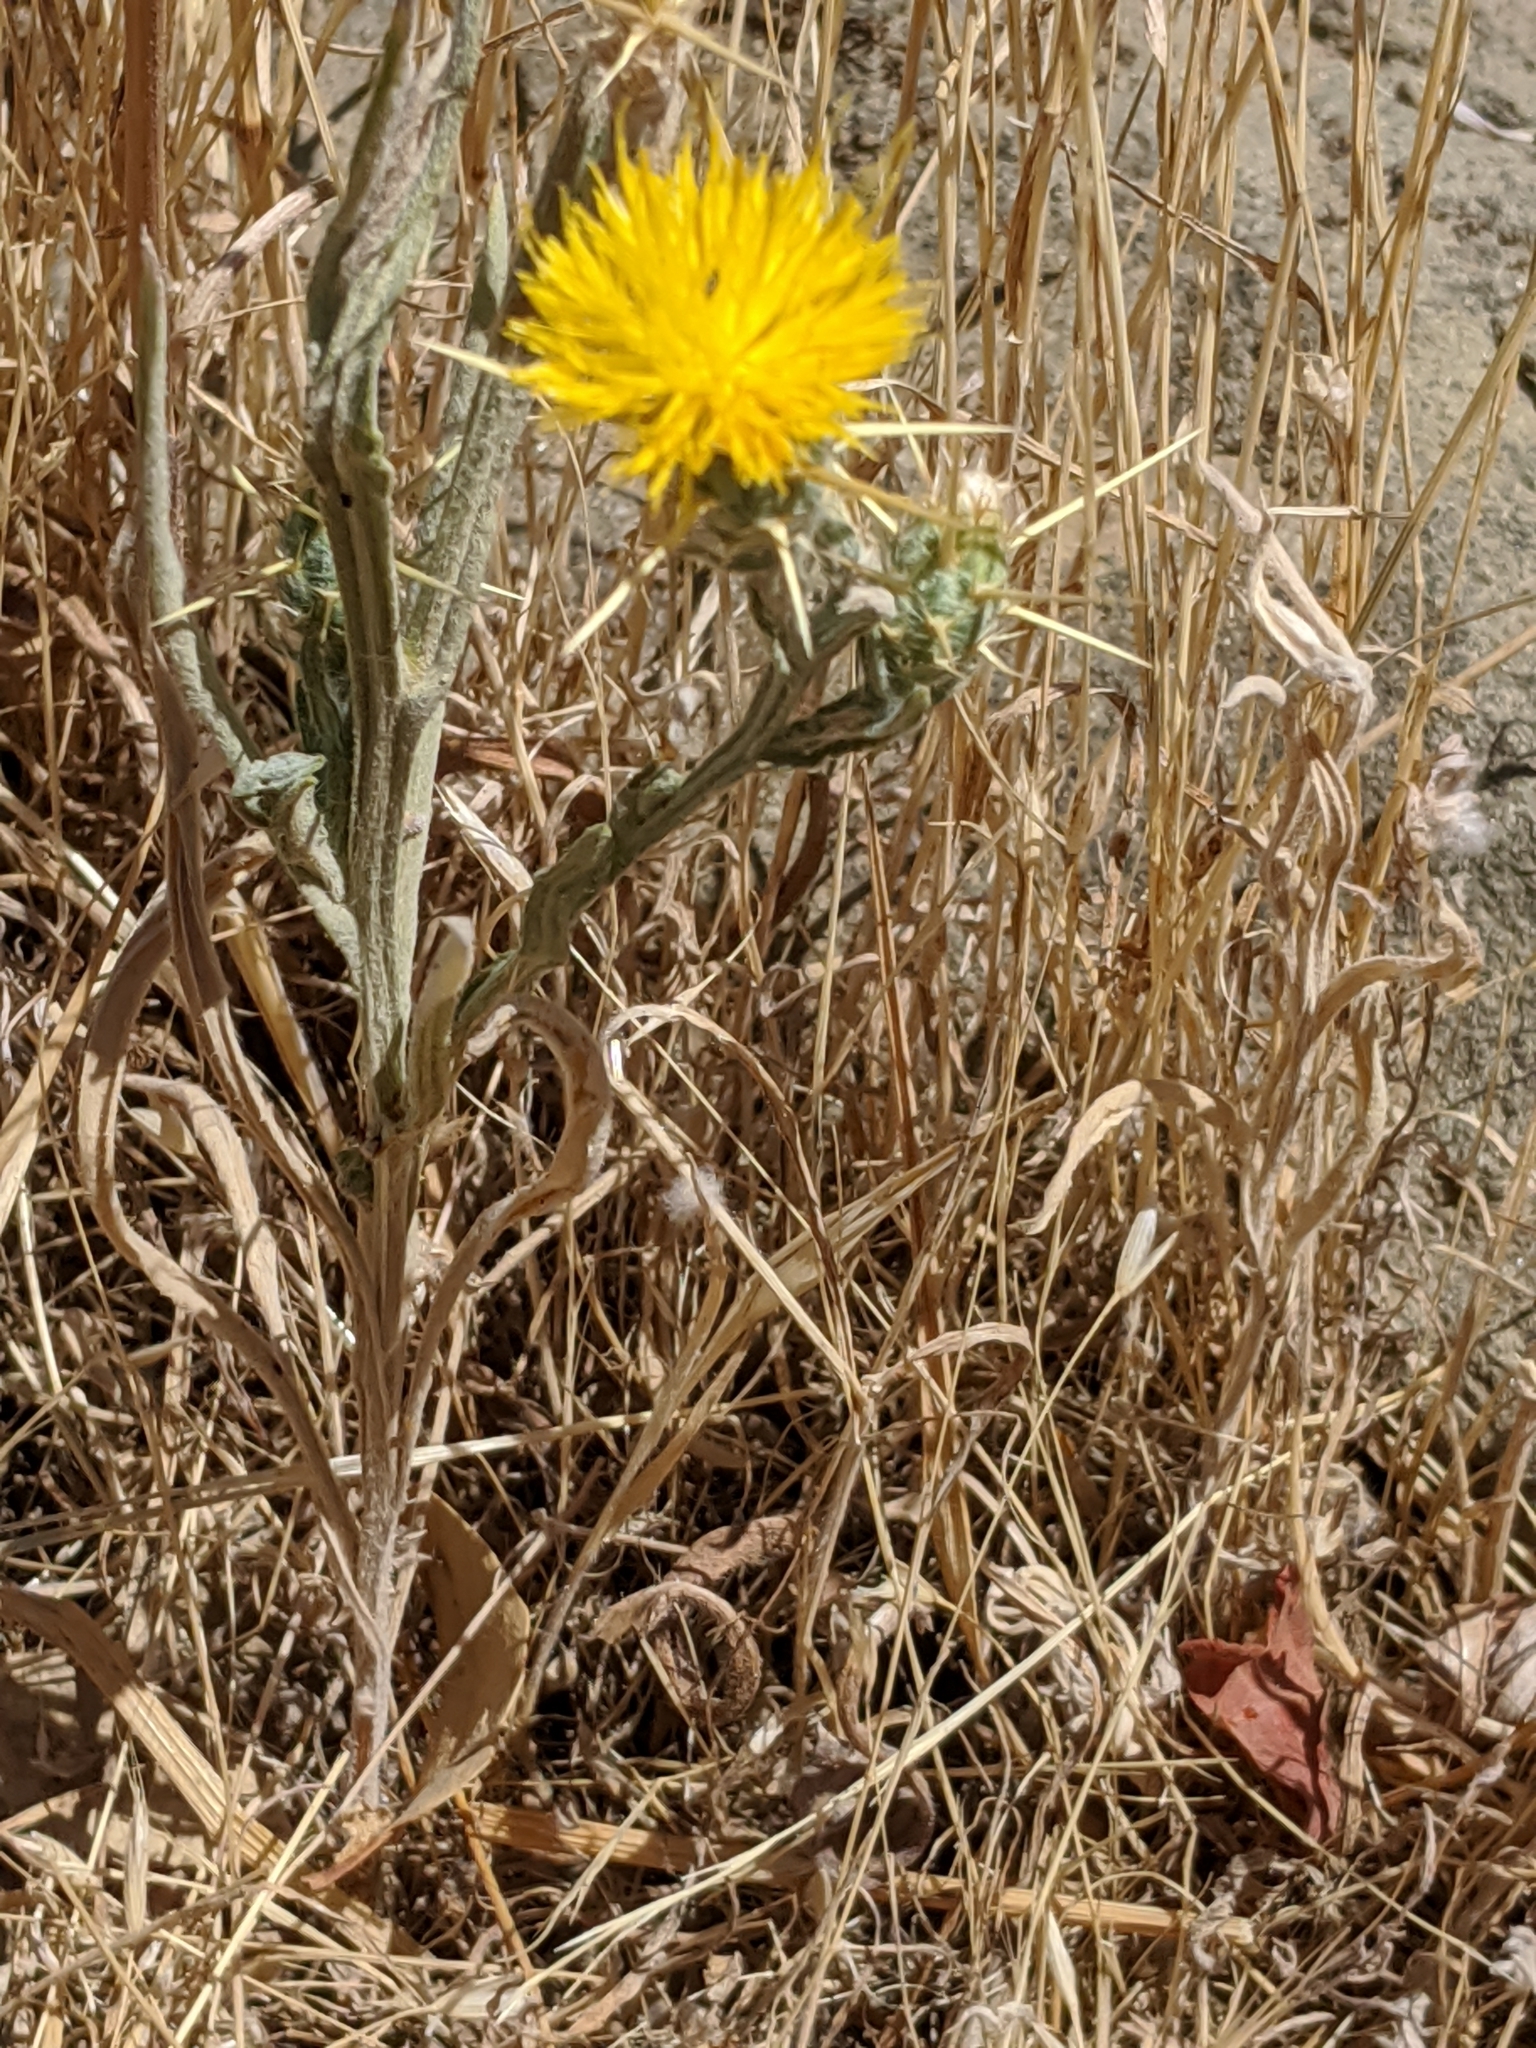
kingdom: Plantae
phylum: Tracheophyta
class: Magnoliopsida
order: Asterales
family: Asteraceae
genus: Centaurea
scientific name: Centaurea solstitialis
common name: Yellow star-thistle
